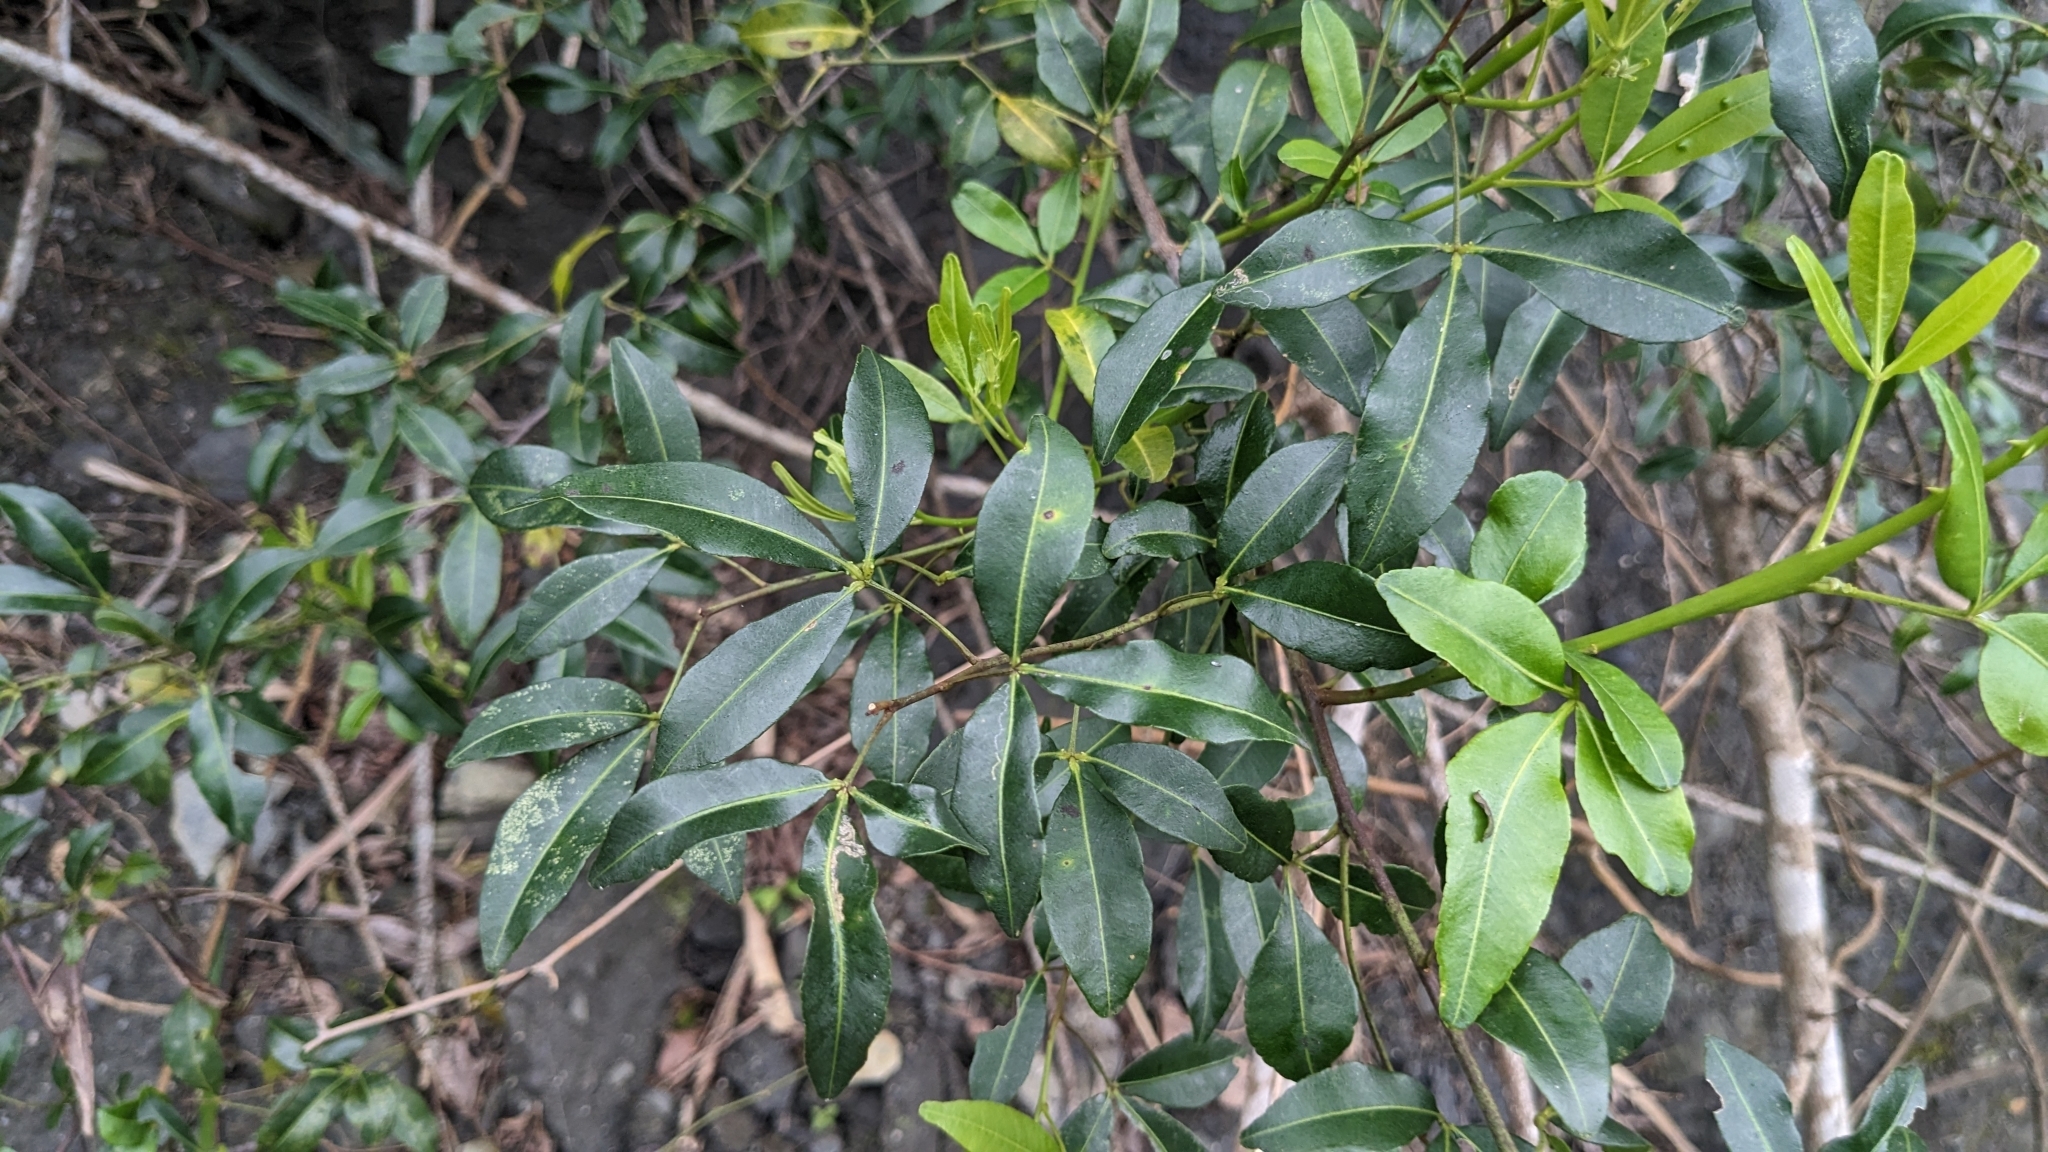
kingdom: Plantae
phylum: Tracheophyta
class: Magnoliopsida
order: Sapindales
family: Rutaceae
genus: Zanthoxylum
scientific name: Zanthoxylum asiaticum
